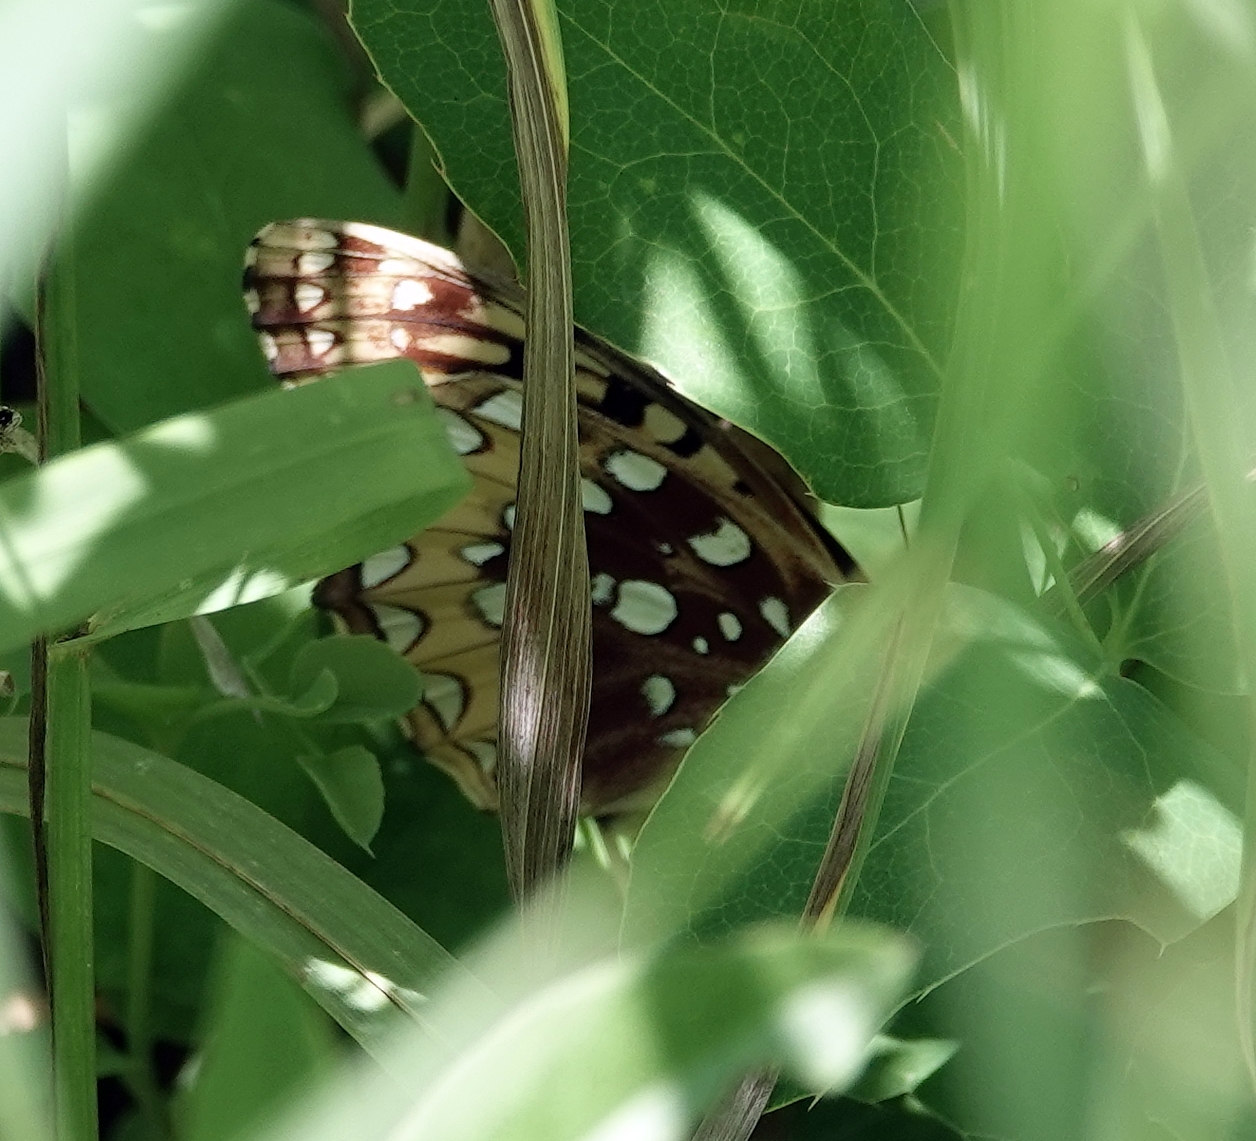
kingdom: Animalia
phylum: Arthropoda
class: Insecta
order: Lepidoptera
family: Nymphalidae
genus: Speyeria
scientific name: Speyeria cybele
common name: Great spangled fritillary
